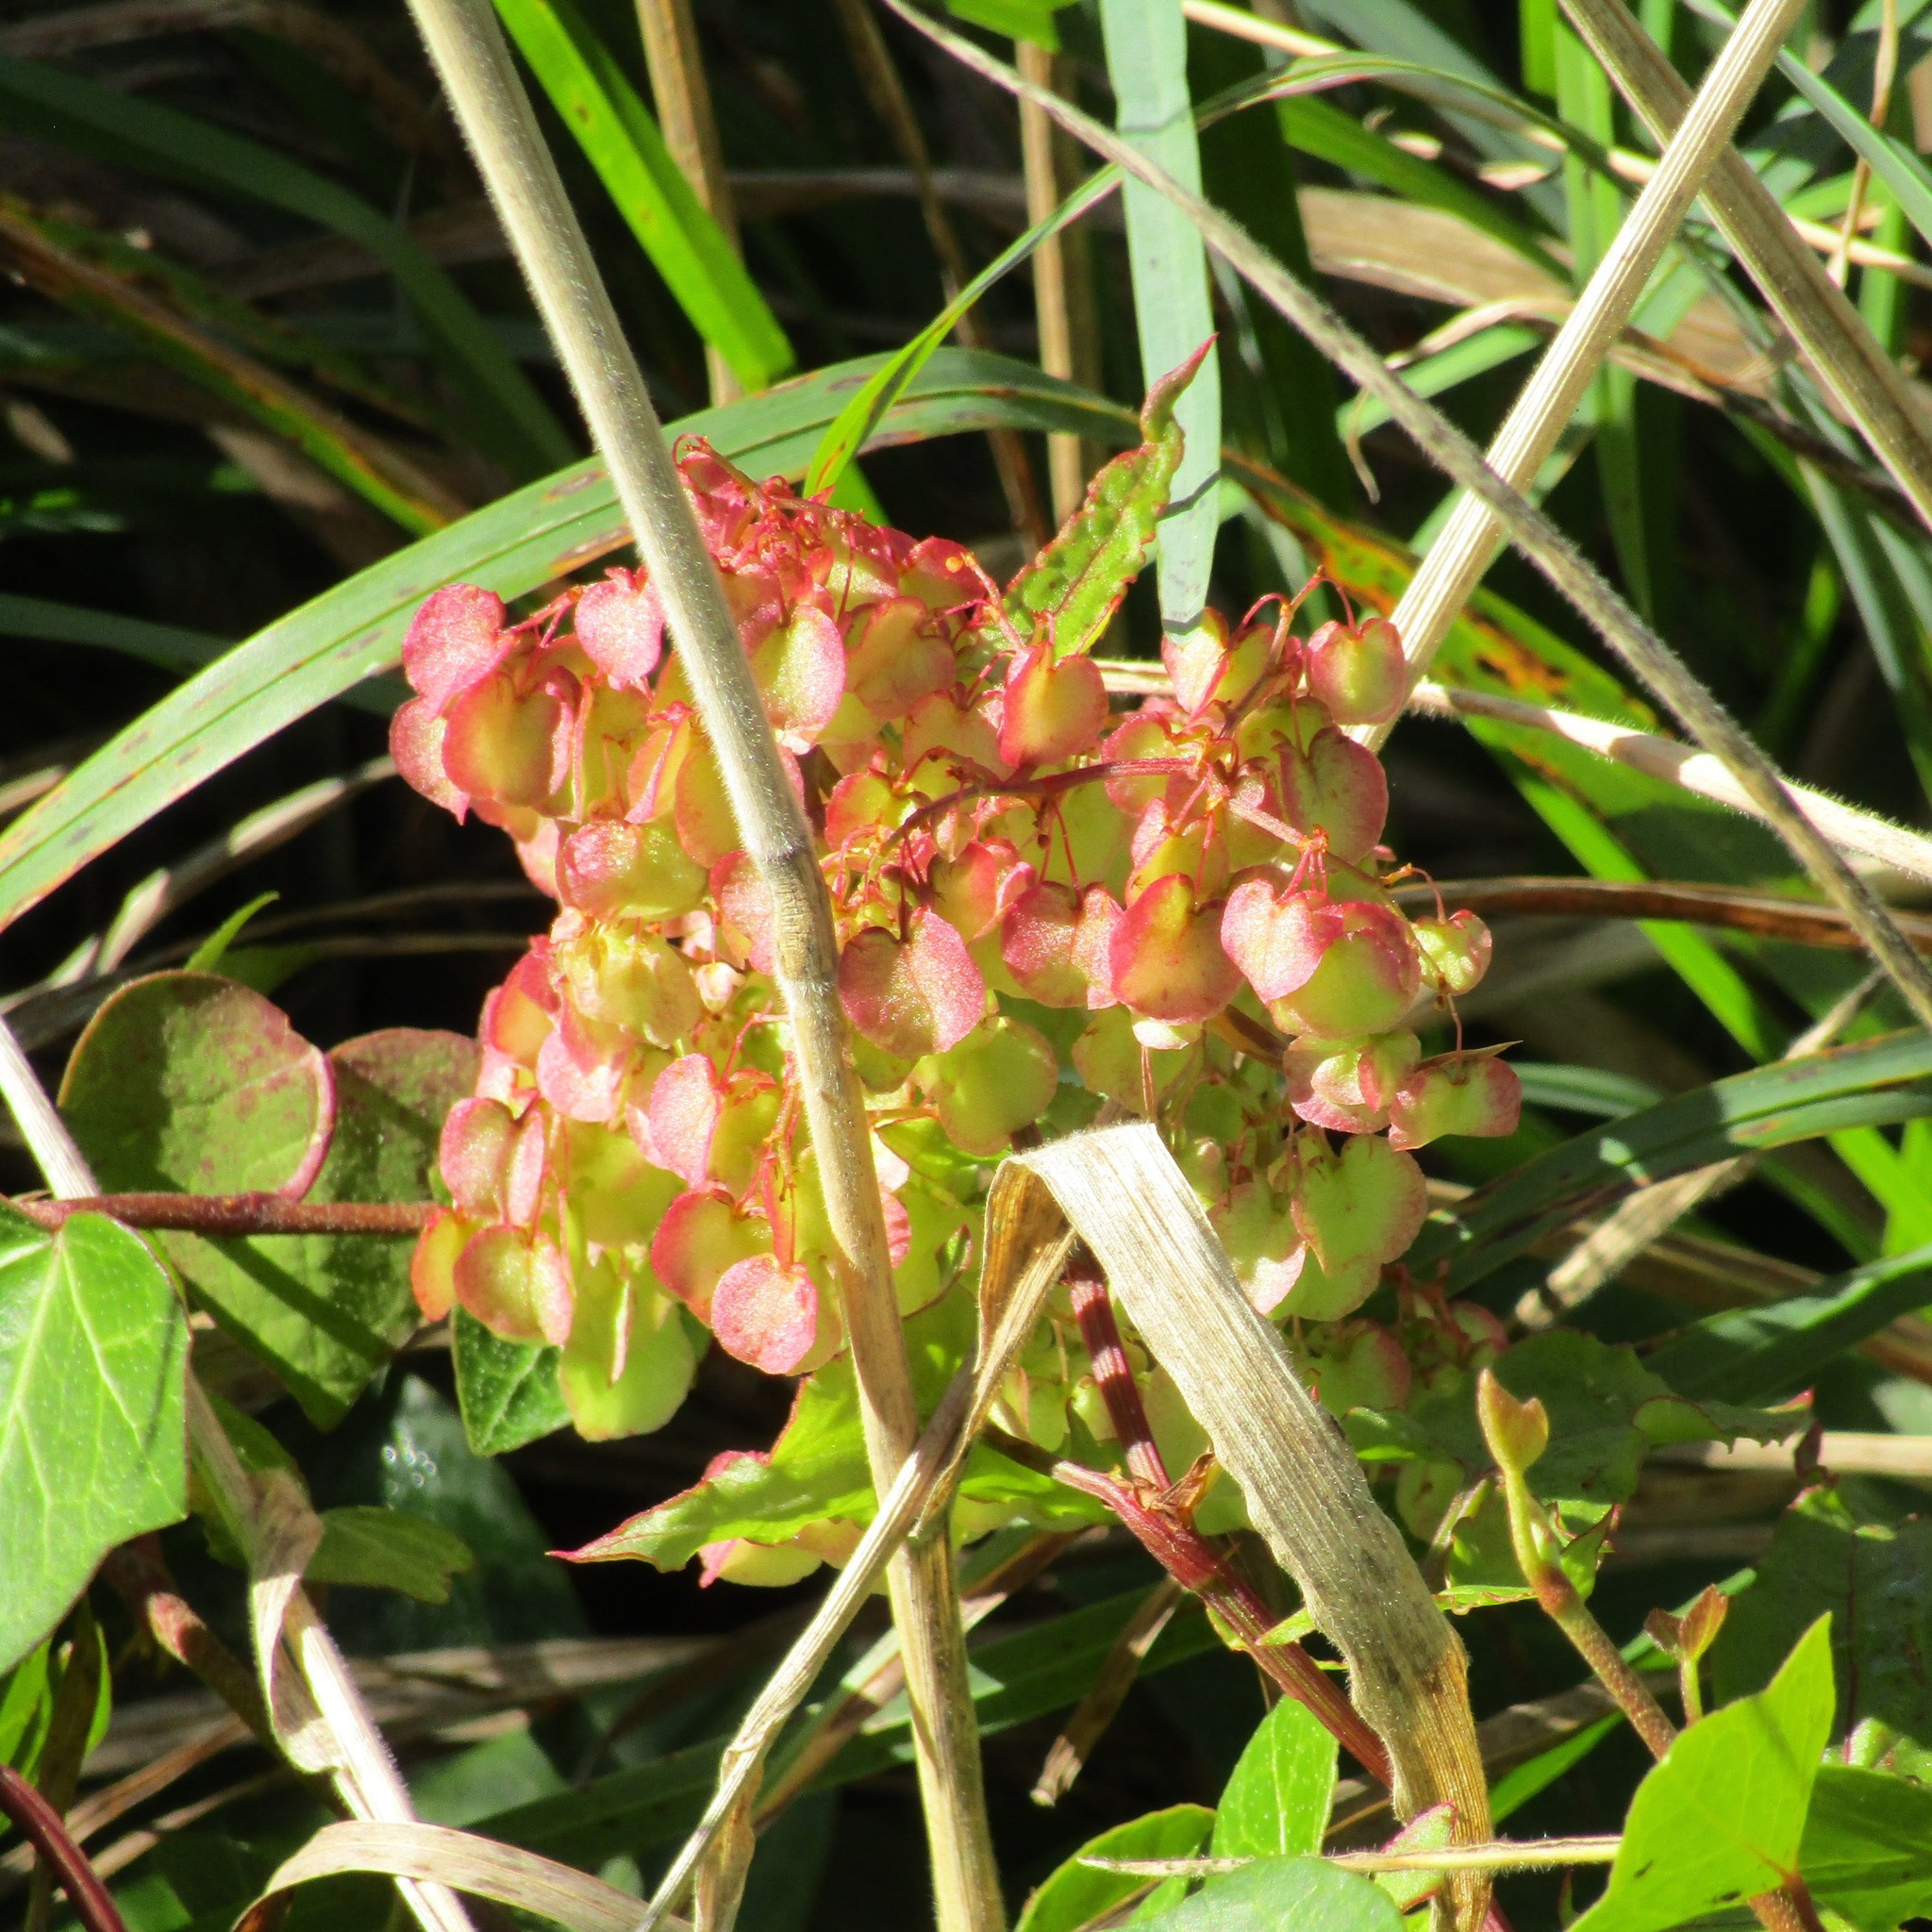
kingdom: Plantae
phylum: Tracheophyta
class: Magnoliopsida
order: Caryophyllales
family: Polygonaceae
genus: Rumex
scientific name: Rumex sagittatus
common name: Climbing dock
